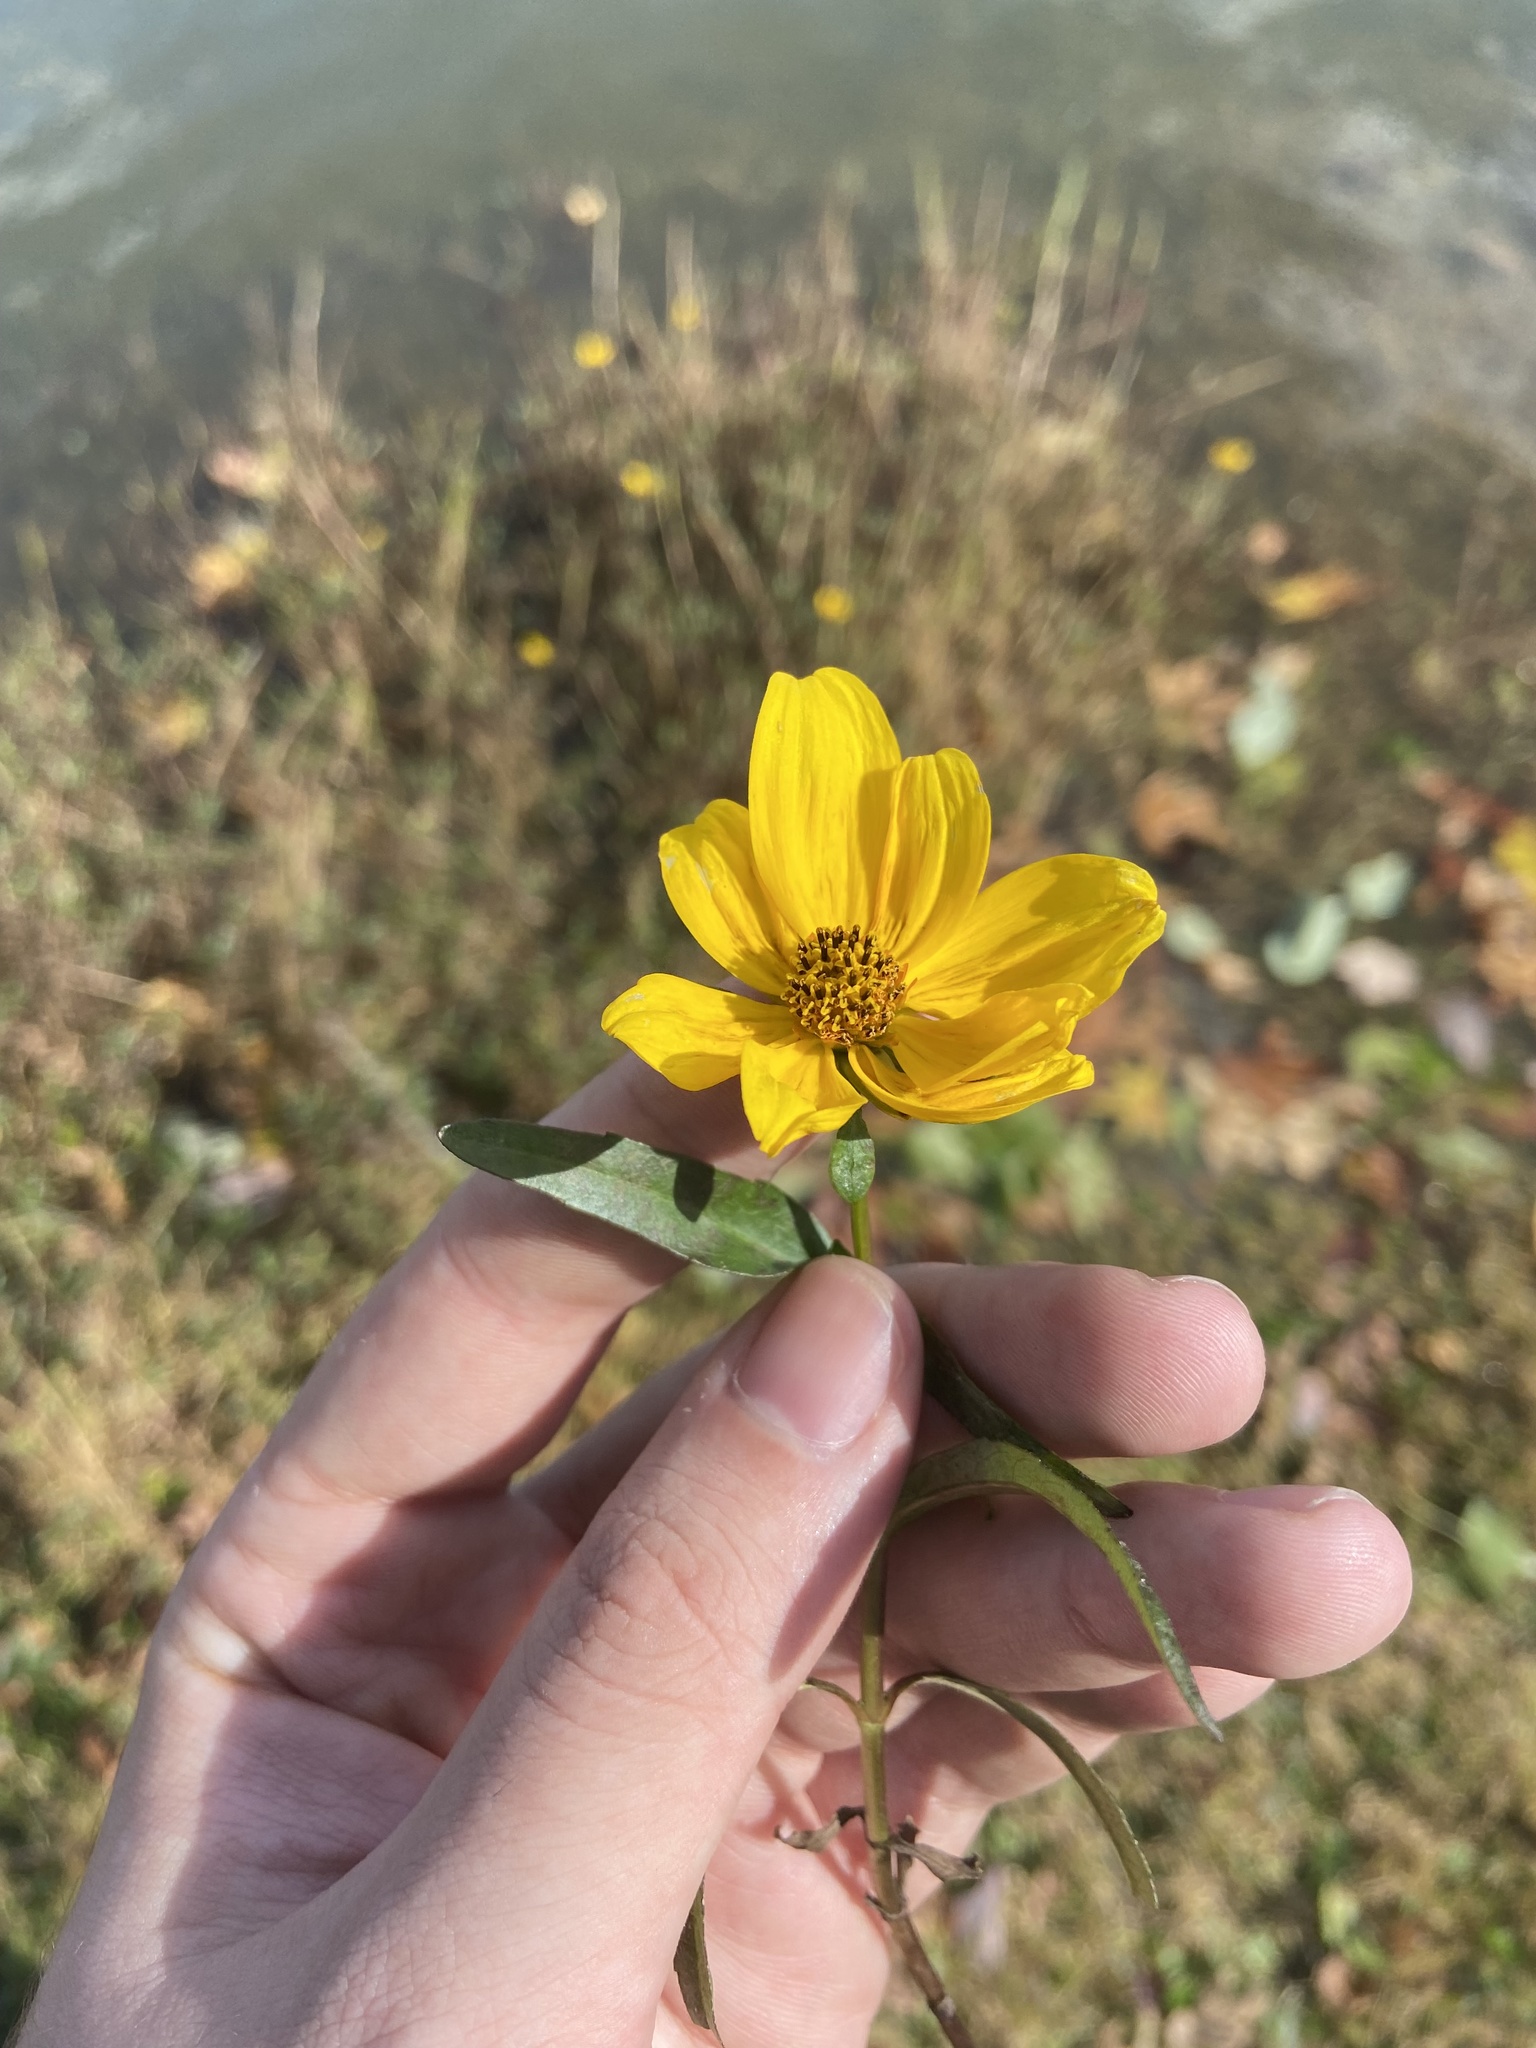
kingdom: Plantae
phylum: Tracheophyta
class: Magnoliopsida
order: Asterales
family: Asteraceae
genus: Bidens
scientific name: Bidens laevis
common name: Larger bur-marigold
